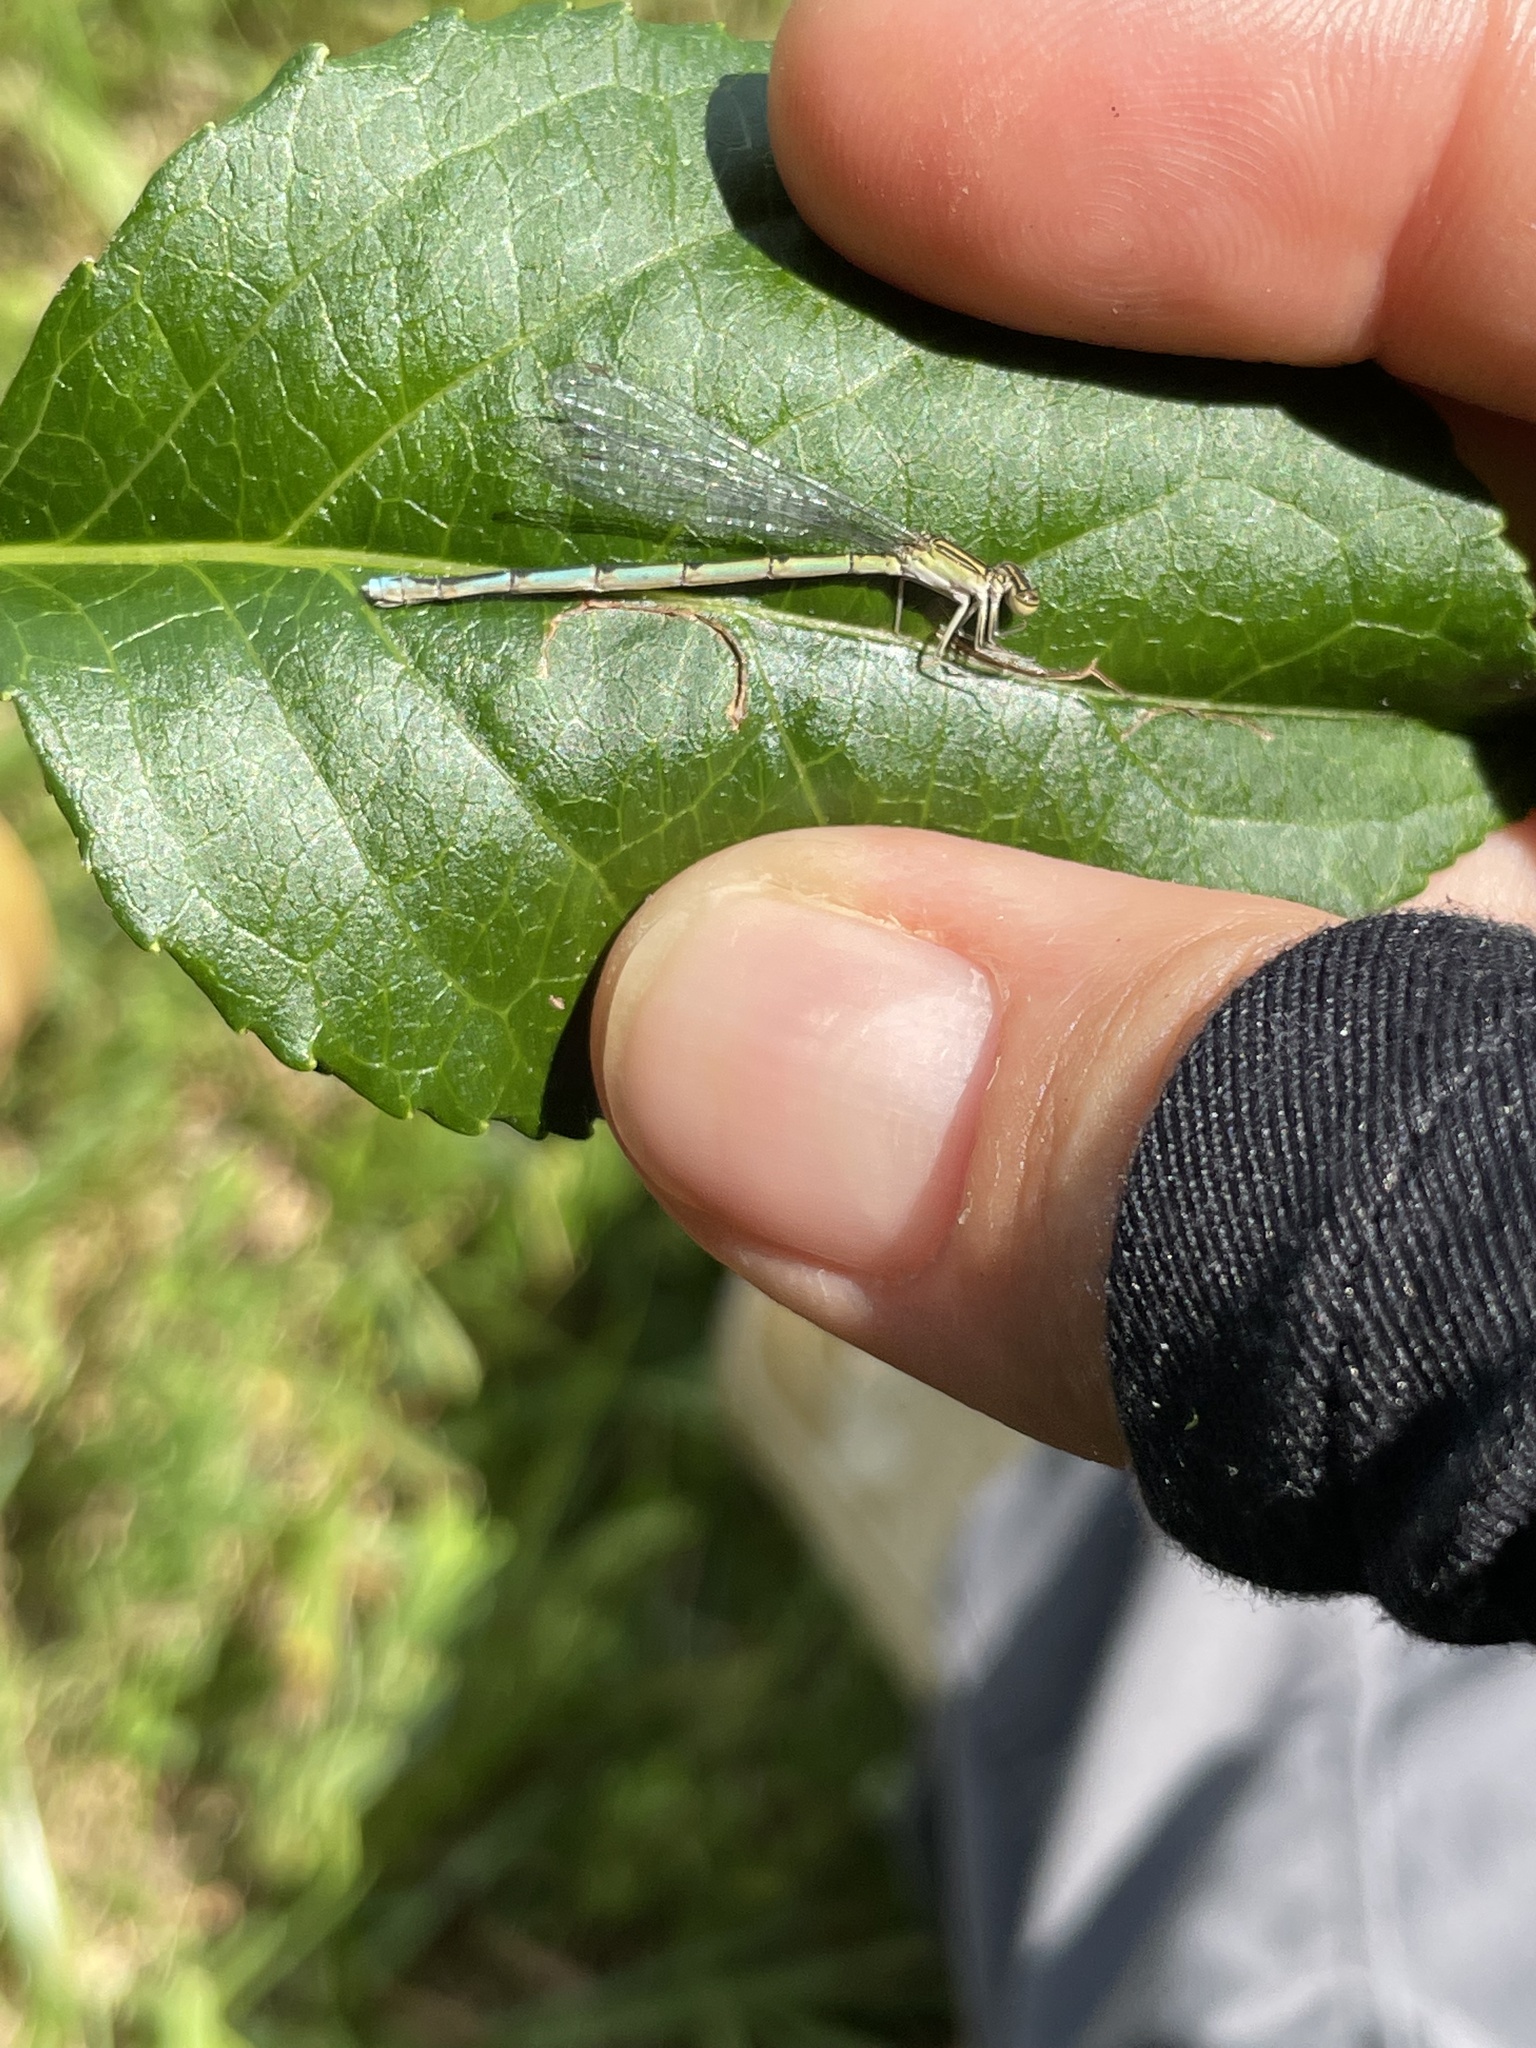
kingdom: Animalia
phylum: Arthropoda
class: Insecta
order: Odonata
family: Coenagrionidae
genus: Enallagma
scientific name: Enallagma basidens
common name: Double-striped bluet
